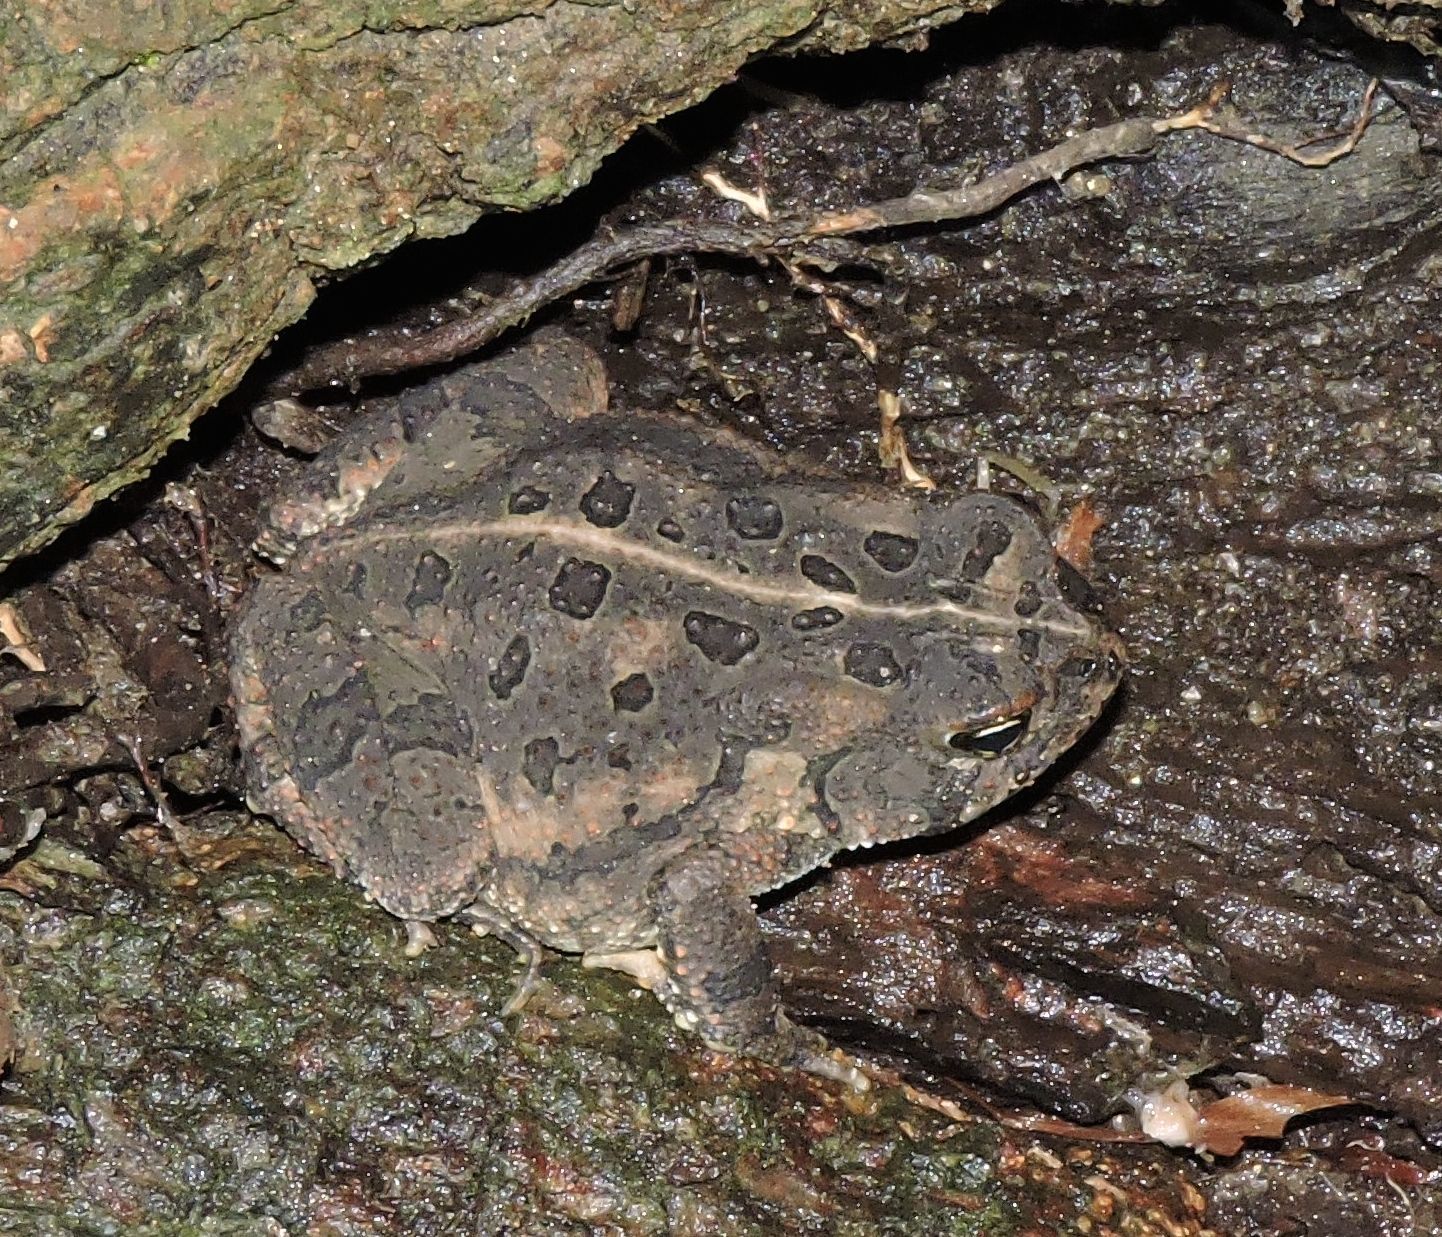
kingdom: Animalia
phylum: Chordata
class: Amphibia
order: Anura
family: Bufonidae
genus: Anaxyrus
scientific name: Anaxyrus fowleri
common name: Fowler's toad
